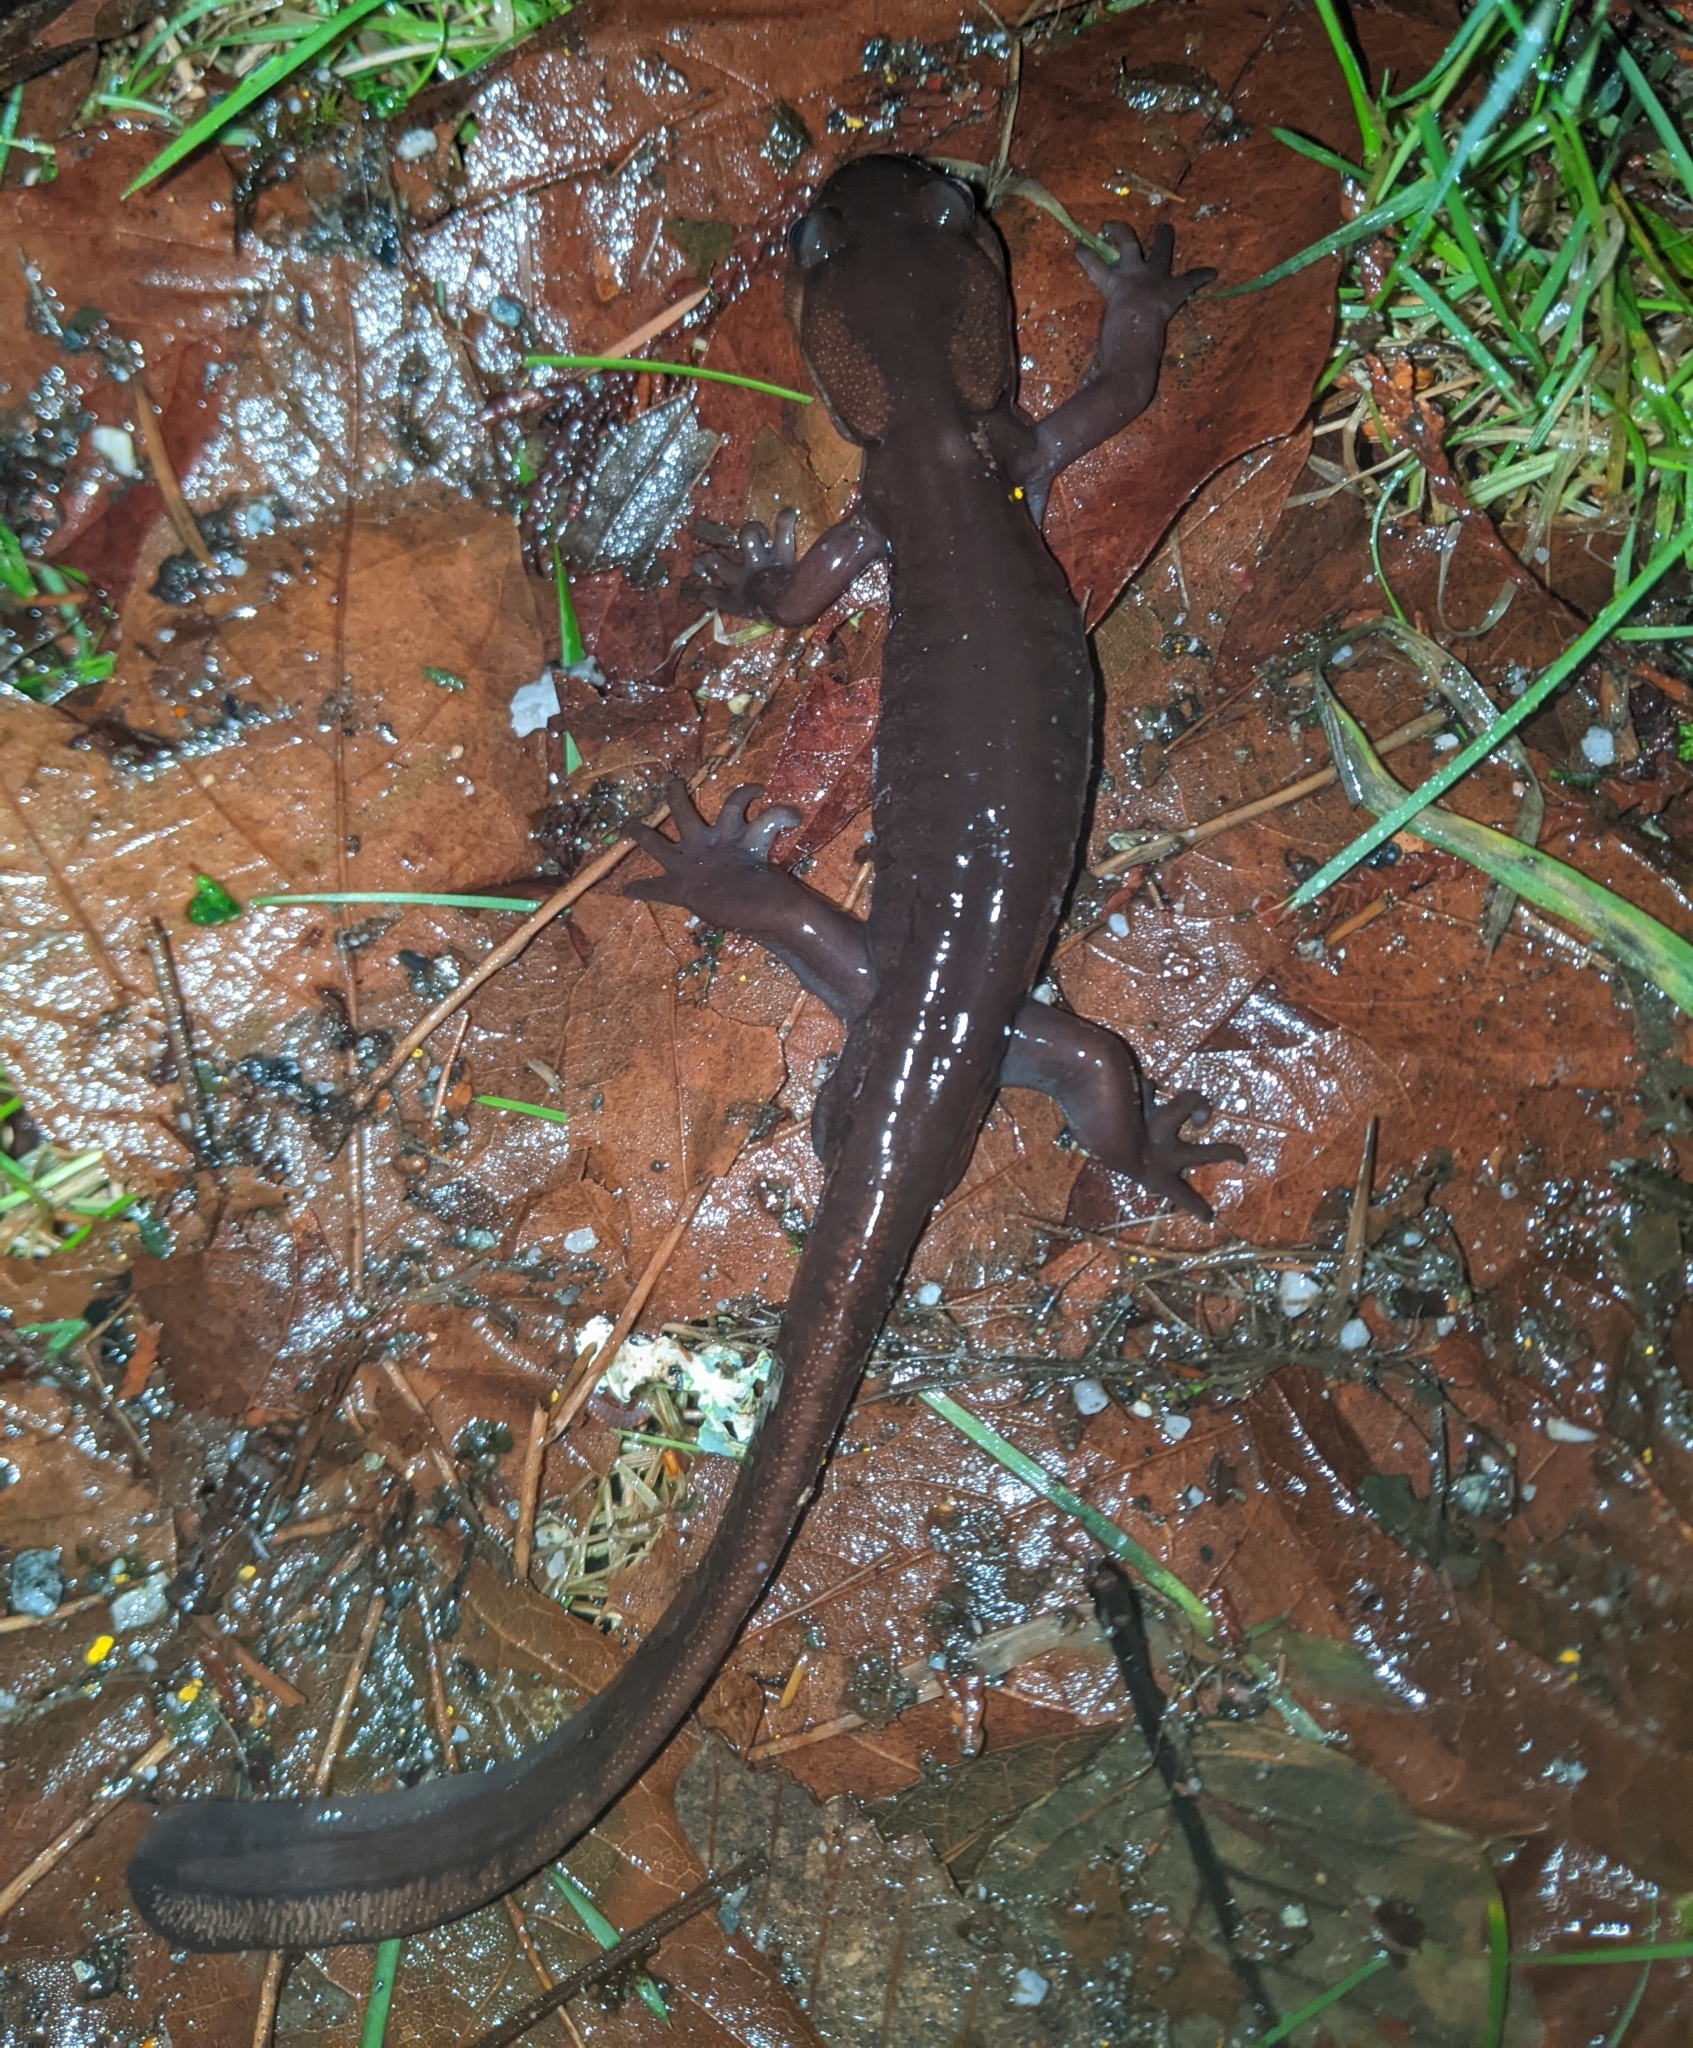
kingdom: Animalia
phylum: Chordata
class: Amphibia
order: Caudata
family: Ambystomatidae
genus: Ambystoma
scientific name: Ambystoma gracile
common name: Northwestern salamander
